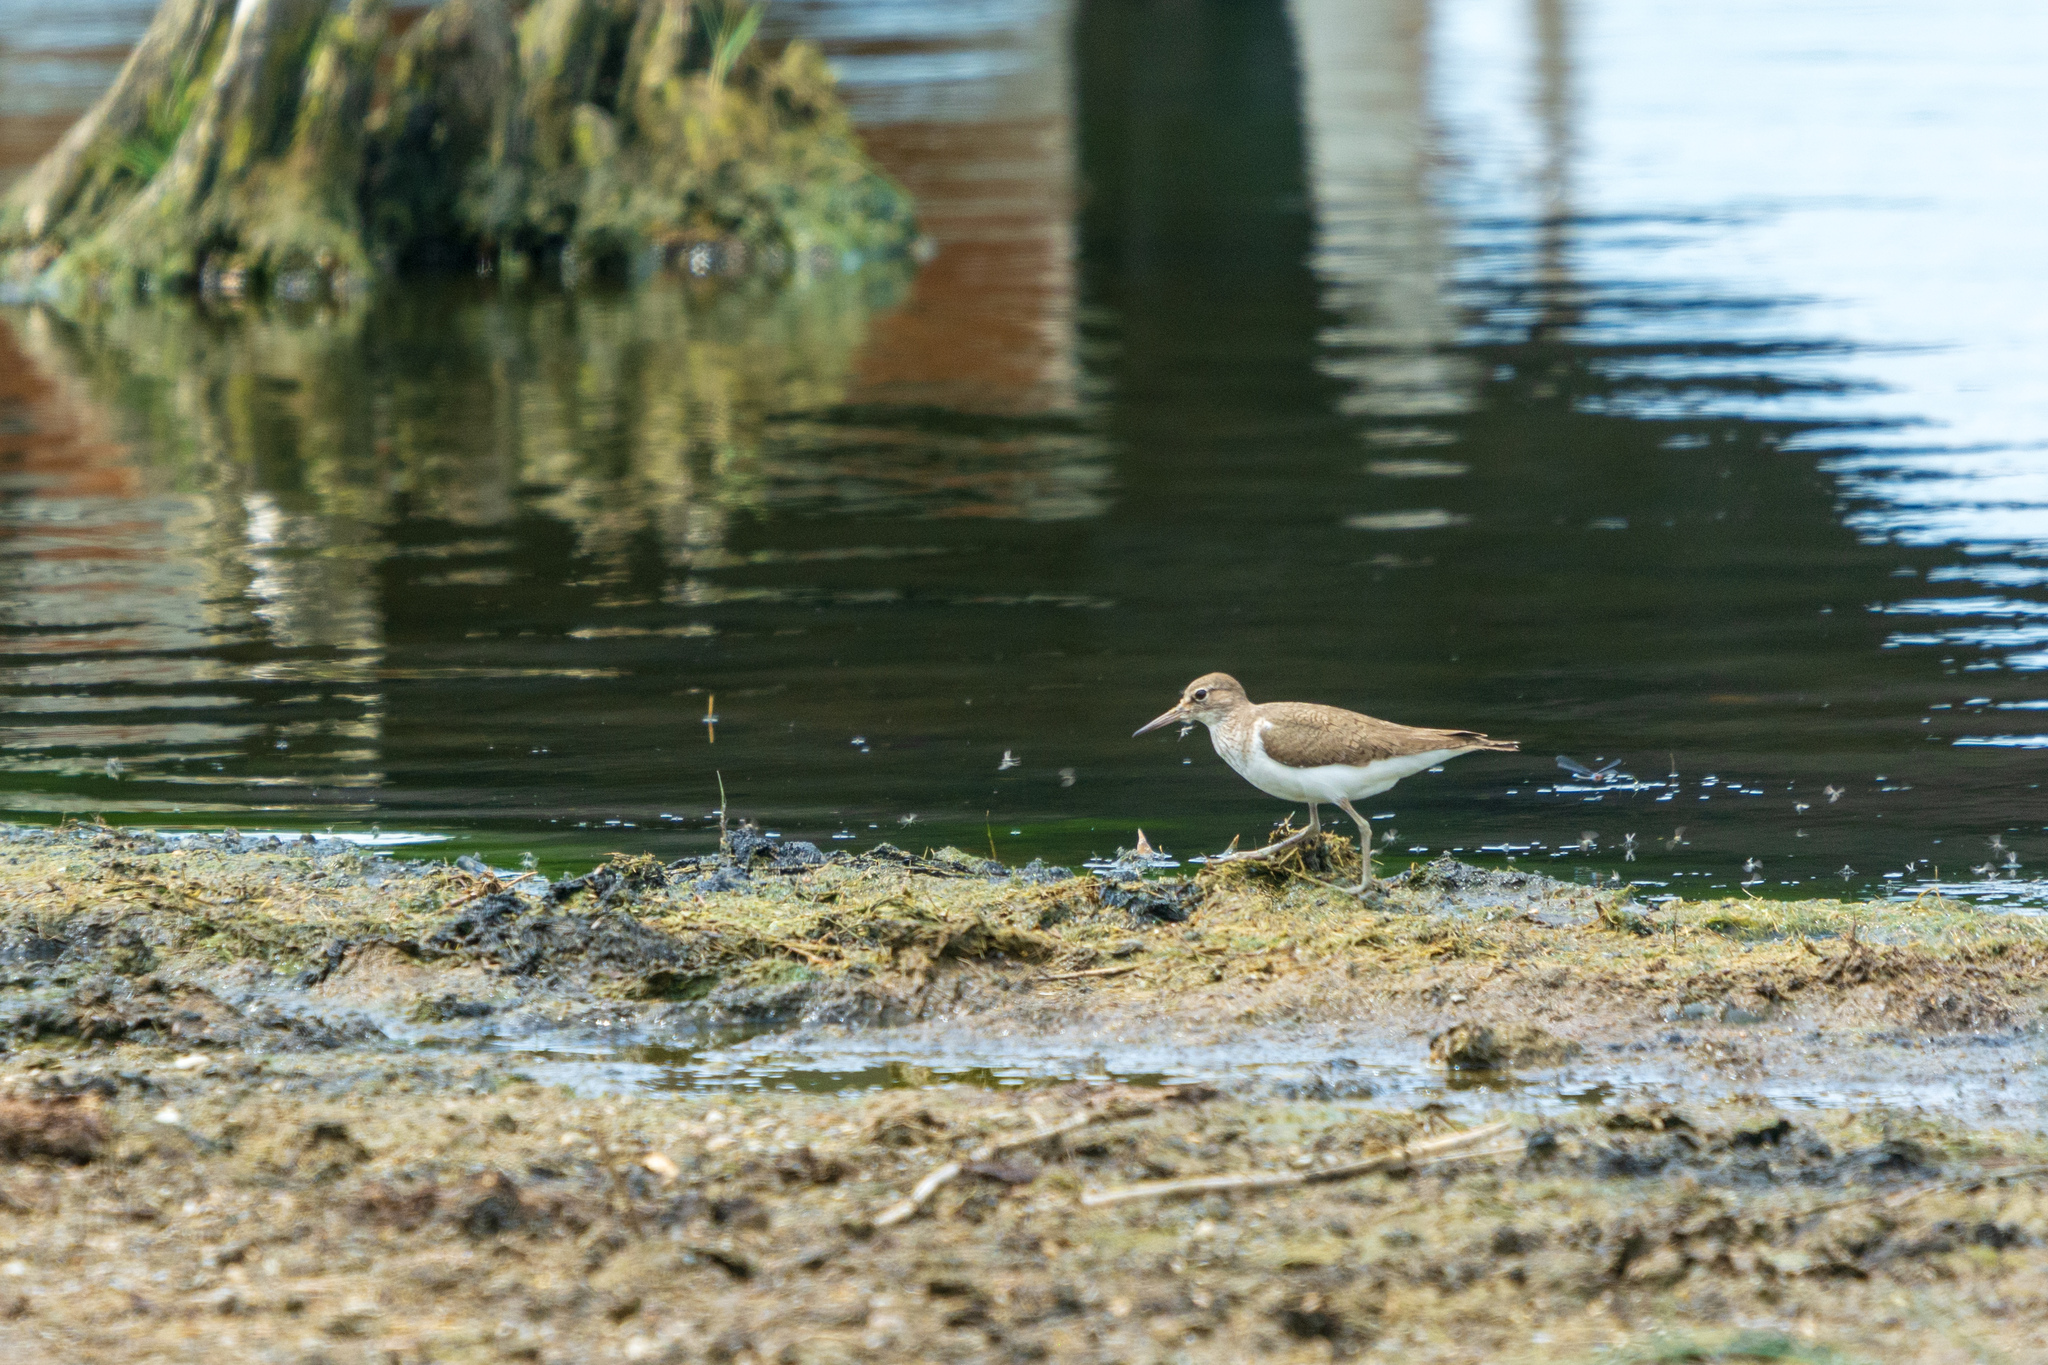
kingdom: Animalia
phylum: Chordata
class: Aves
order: Charadriiformes
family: Scolopacidae
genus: Actitis
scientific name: Actitis hypoleucos
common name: Common sandpiper
